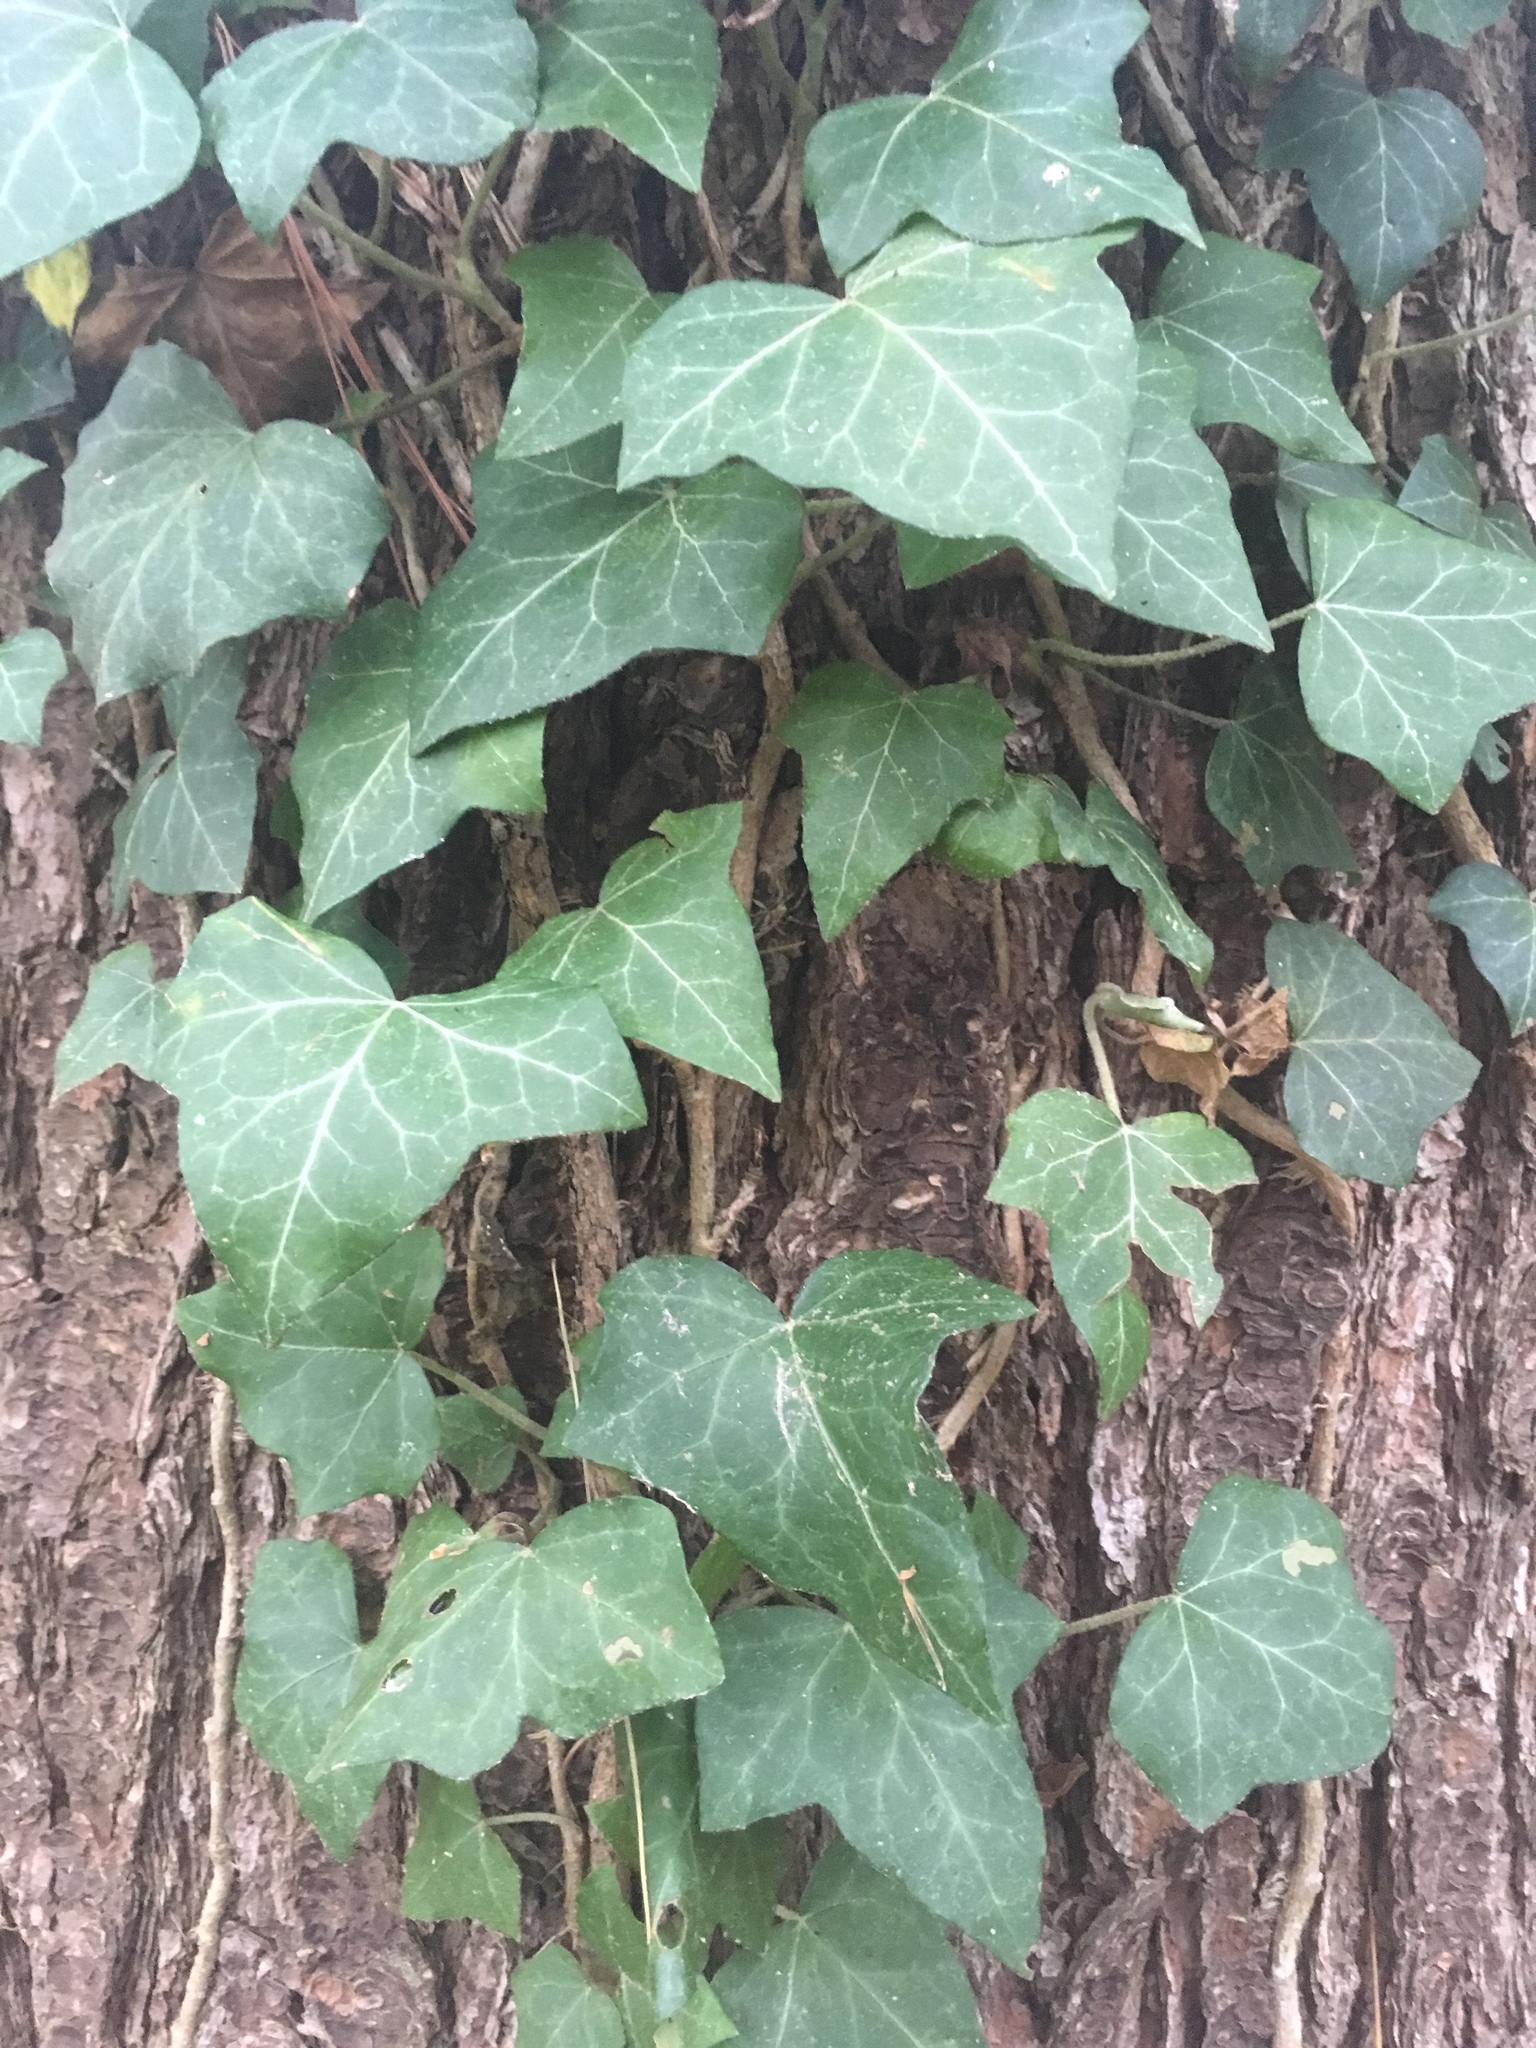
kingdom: Plantae
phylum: Tracheophyta
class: Magnoliopsida
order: Apiales
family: Araliaceae
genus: Hedera
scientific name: Hedera helix
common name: Ivy
